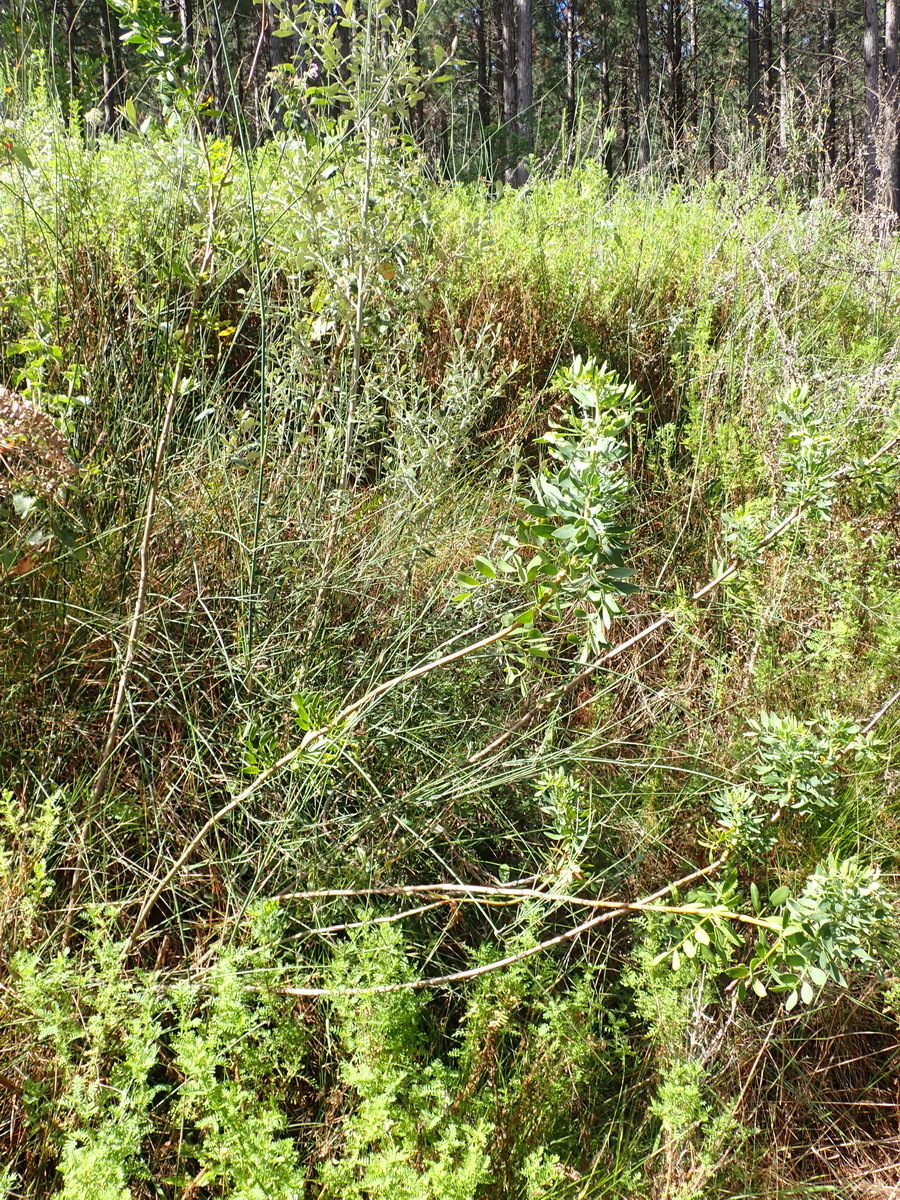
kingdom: Plantae
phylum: Tracheophyta
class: Magnoliopsida
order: Apiales
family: Apiaceae
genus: Notobubon
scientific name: Notobubon laevigatum
